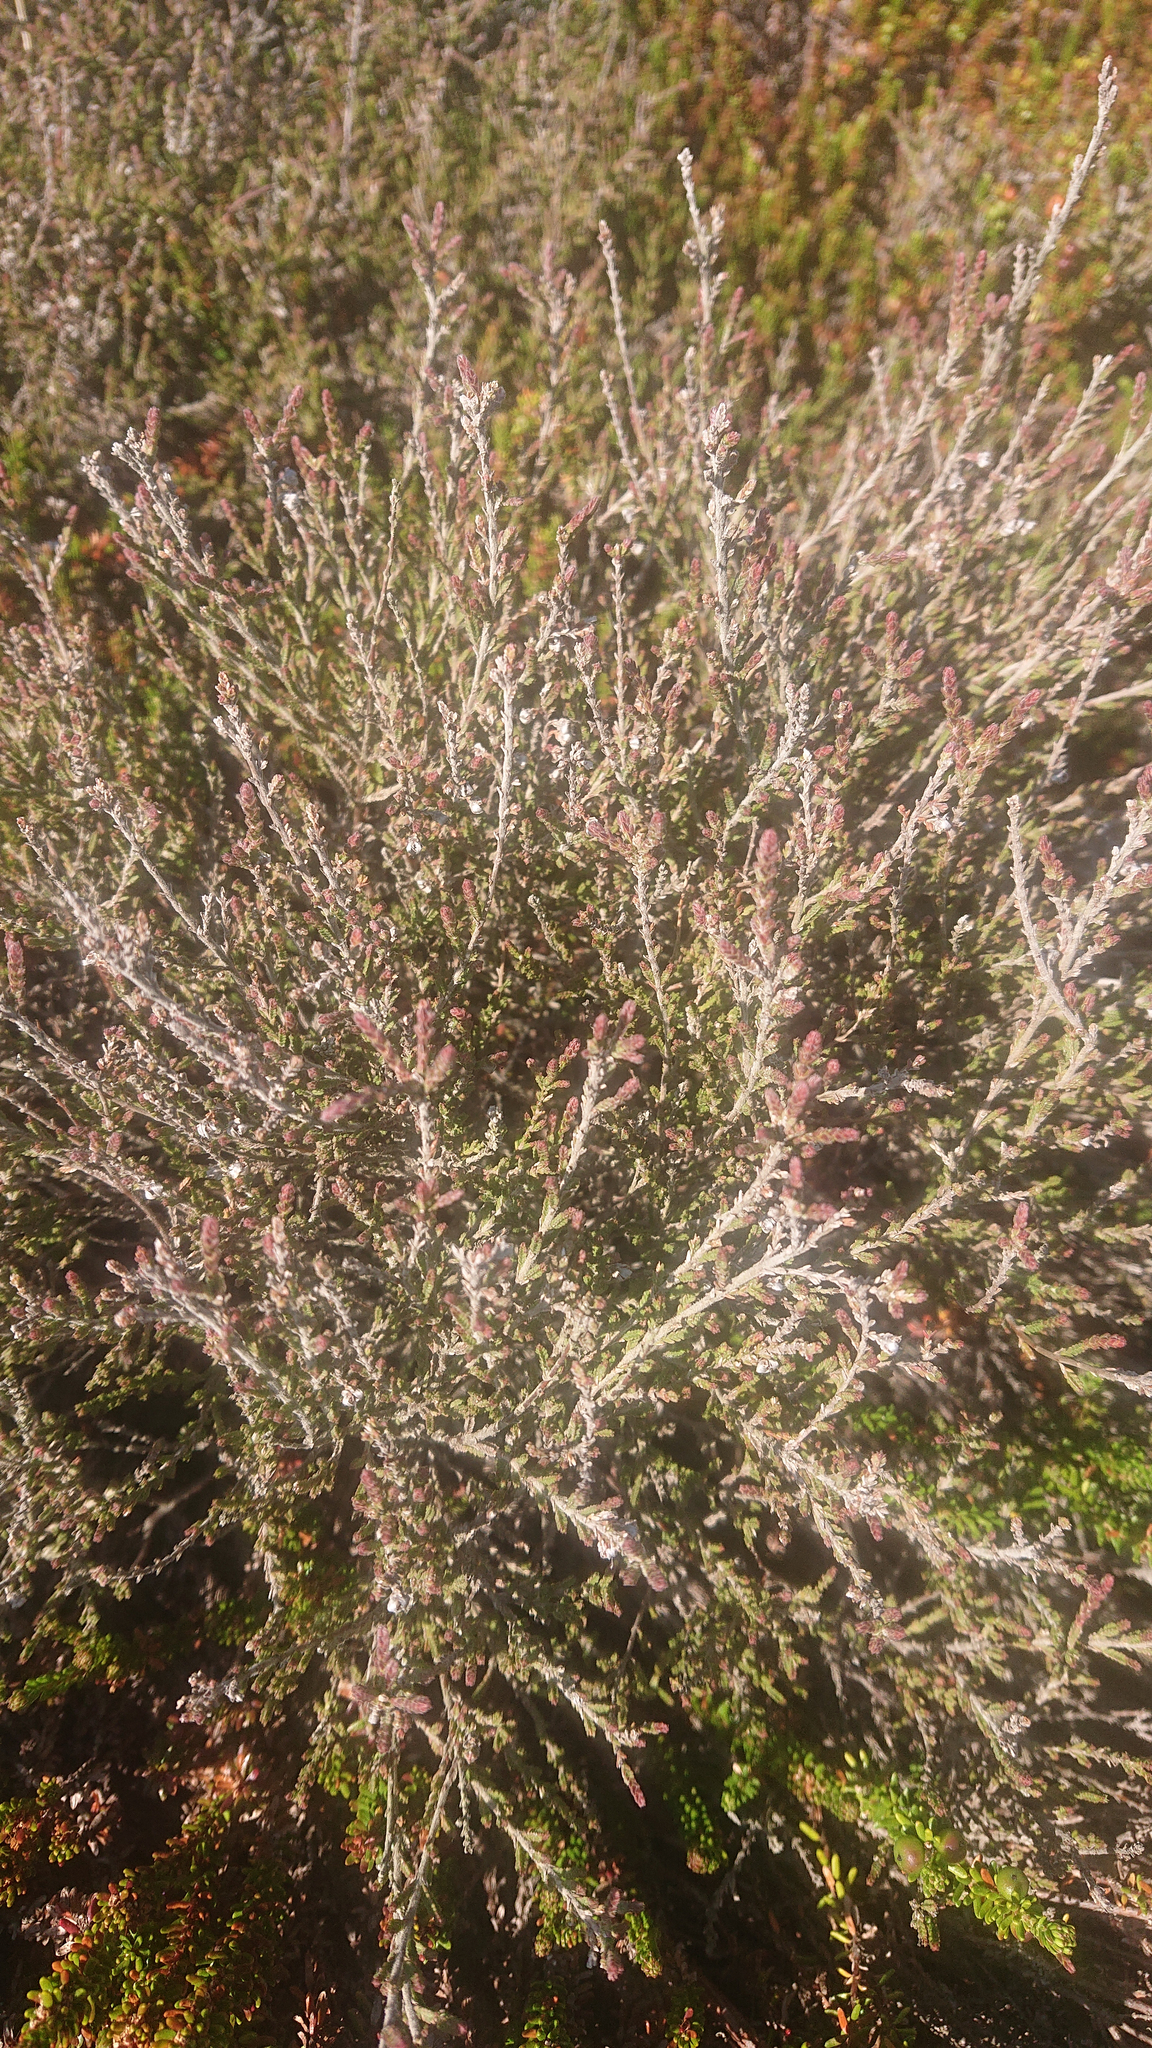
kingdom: Plantae
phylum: Tracheophyta
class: Magnoliopsida
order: Ericales
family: Ericaceae
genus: Calluna
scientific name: Calluna vulgaris
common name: Heather
